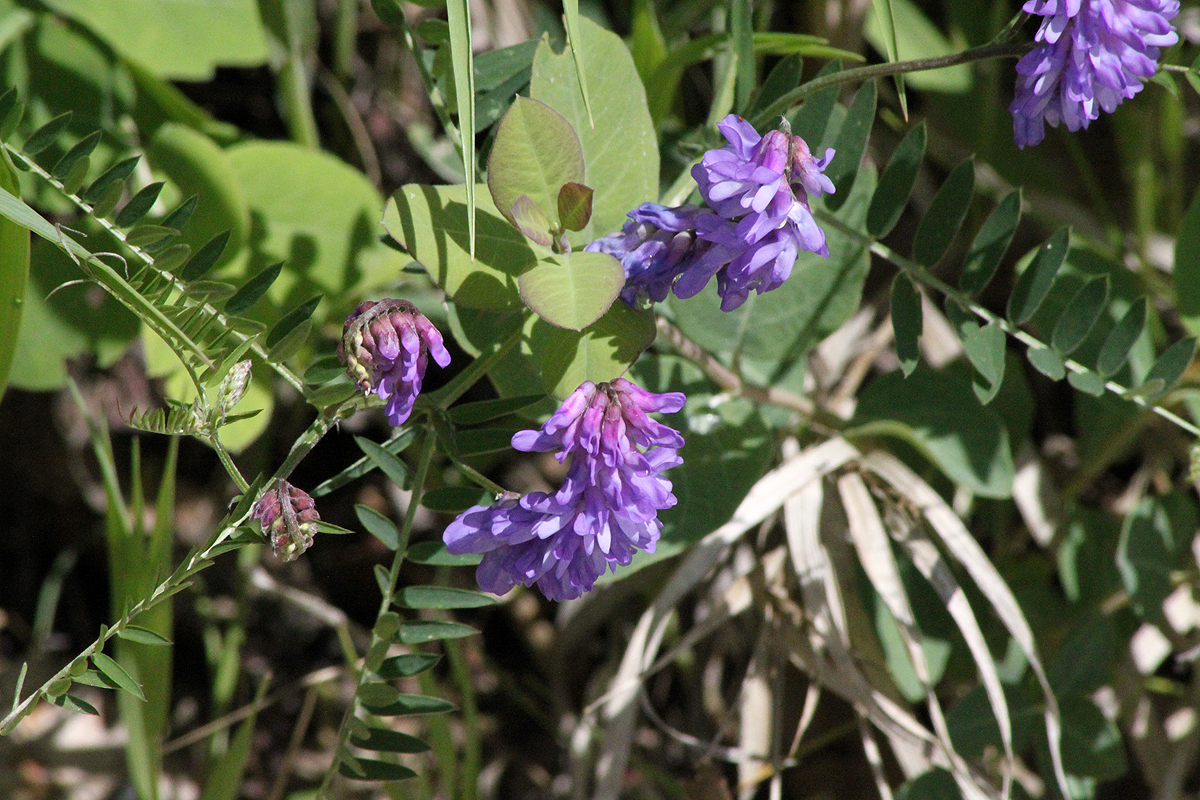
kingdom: Plantae
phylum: Tracheophyta
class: Magnoliopsida
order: Fabales
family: Fabaceae
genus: Vicia
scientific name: Vicia cracca
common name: Bird vetch
